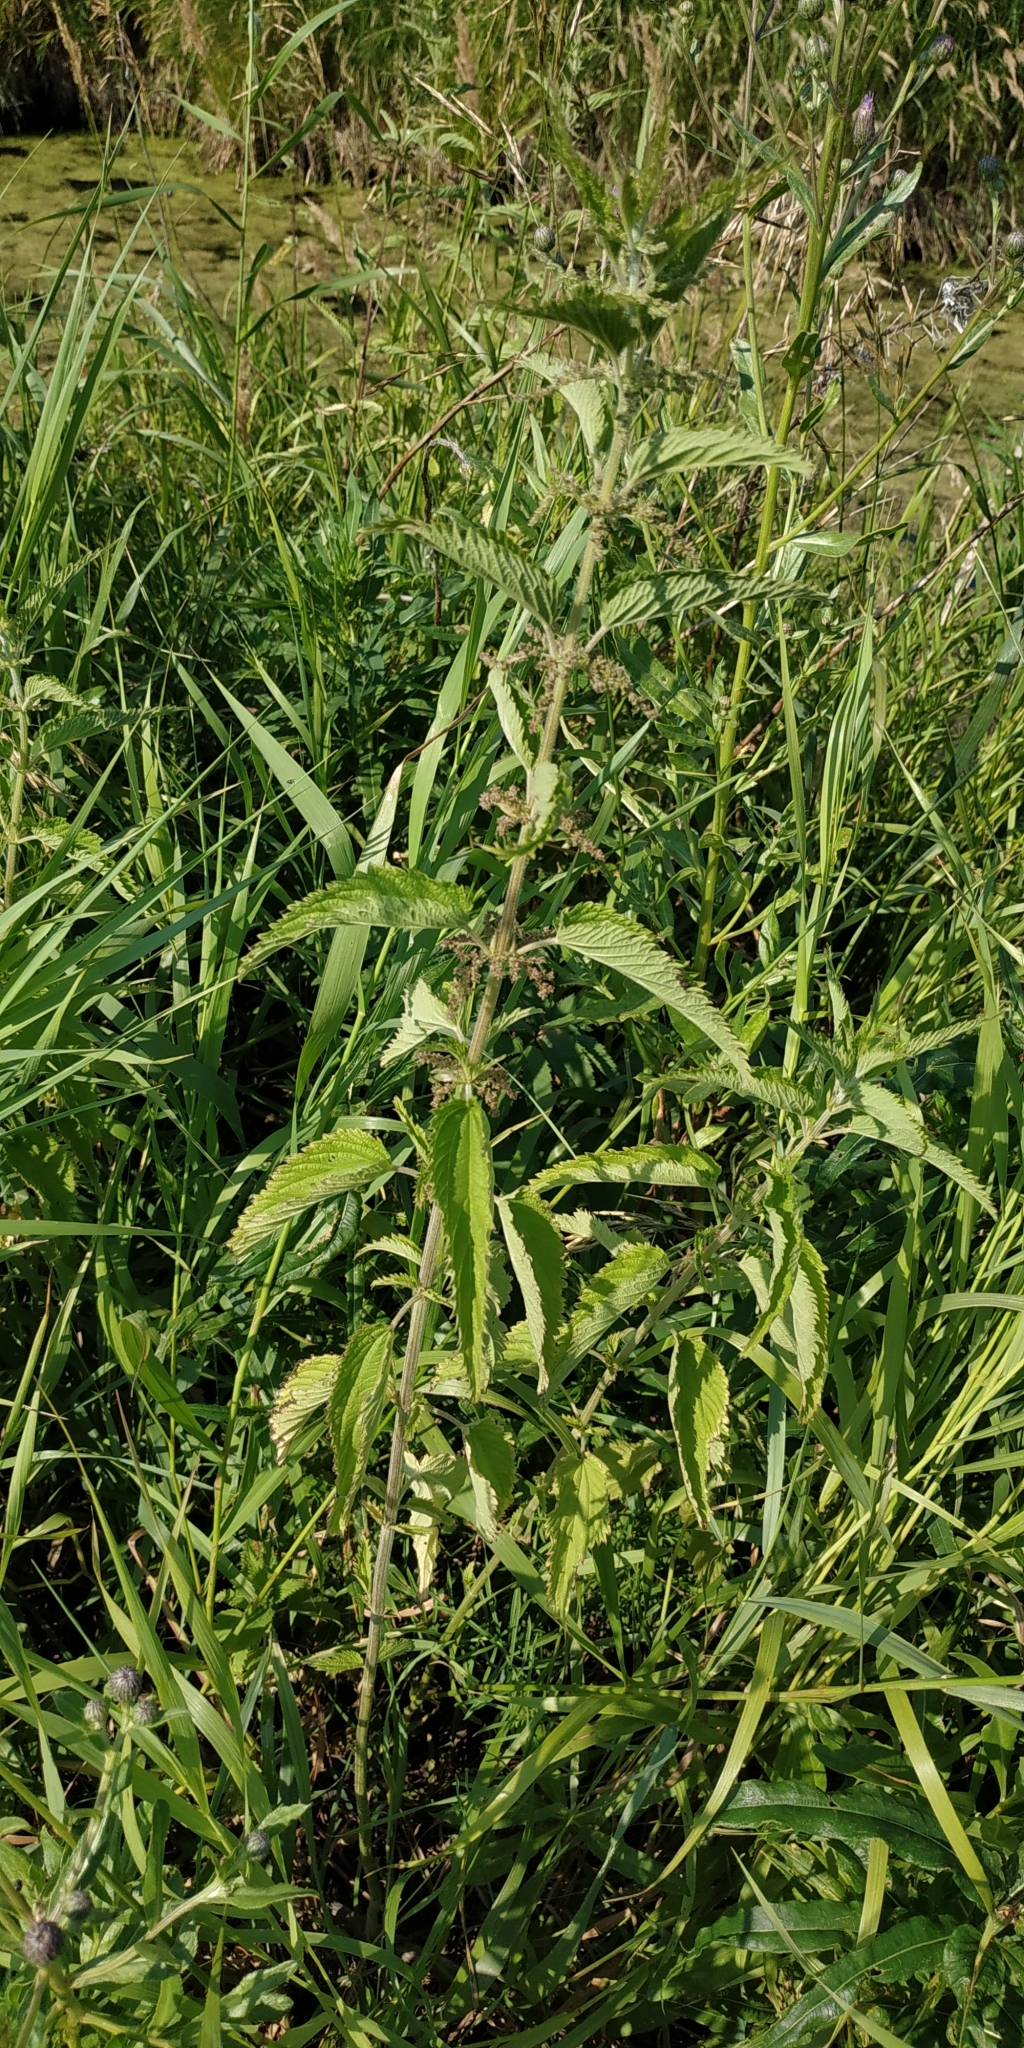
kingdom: Plantae
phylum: Tracheophyta
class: Magnoliopsida
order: Rosales
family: Urticaceae
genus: Urtica
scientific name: Urtica galeopsifolia
